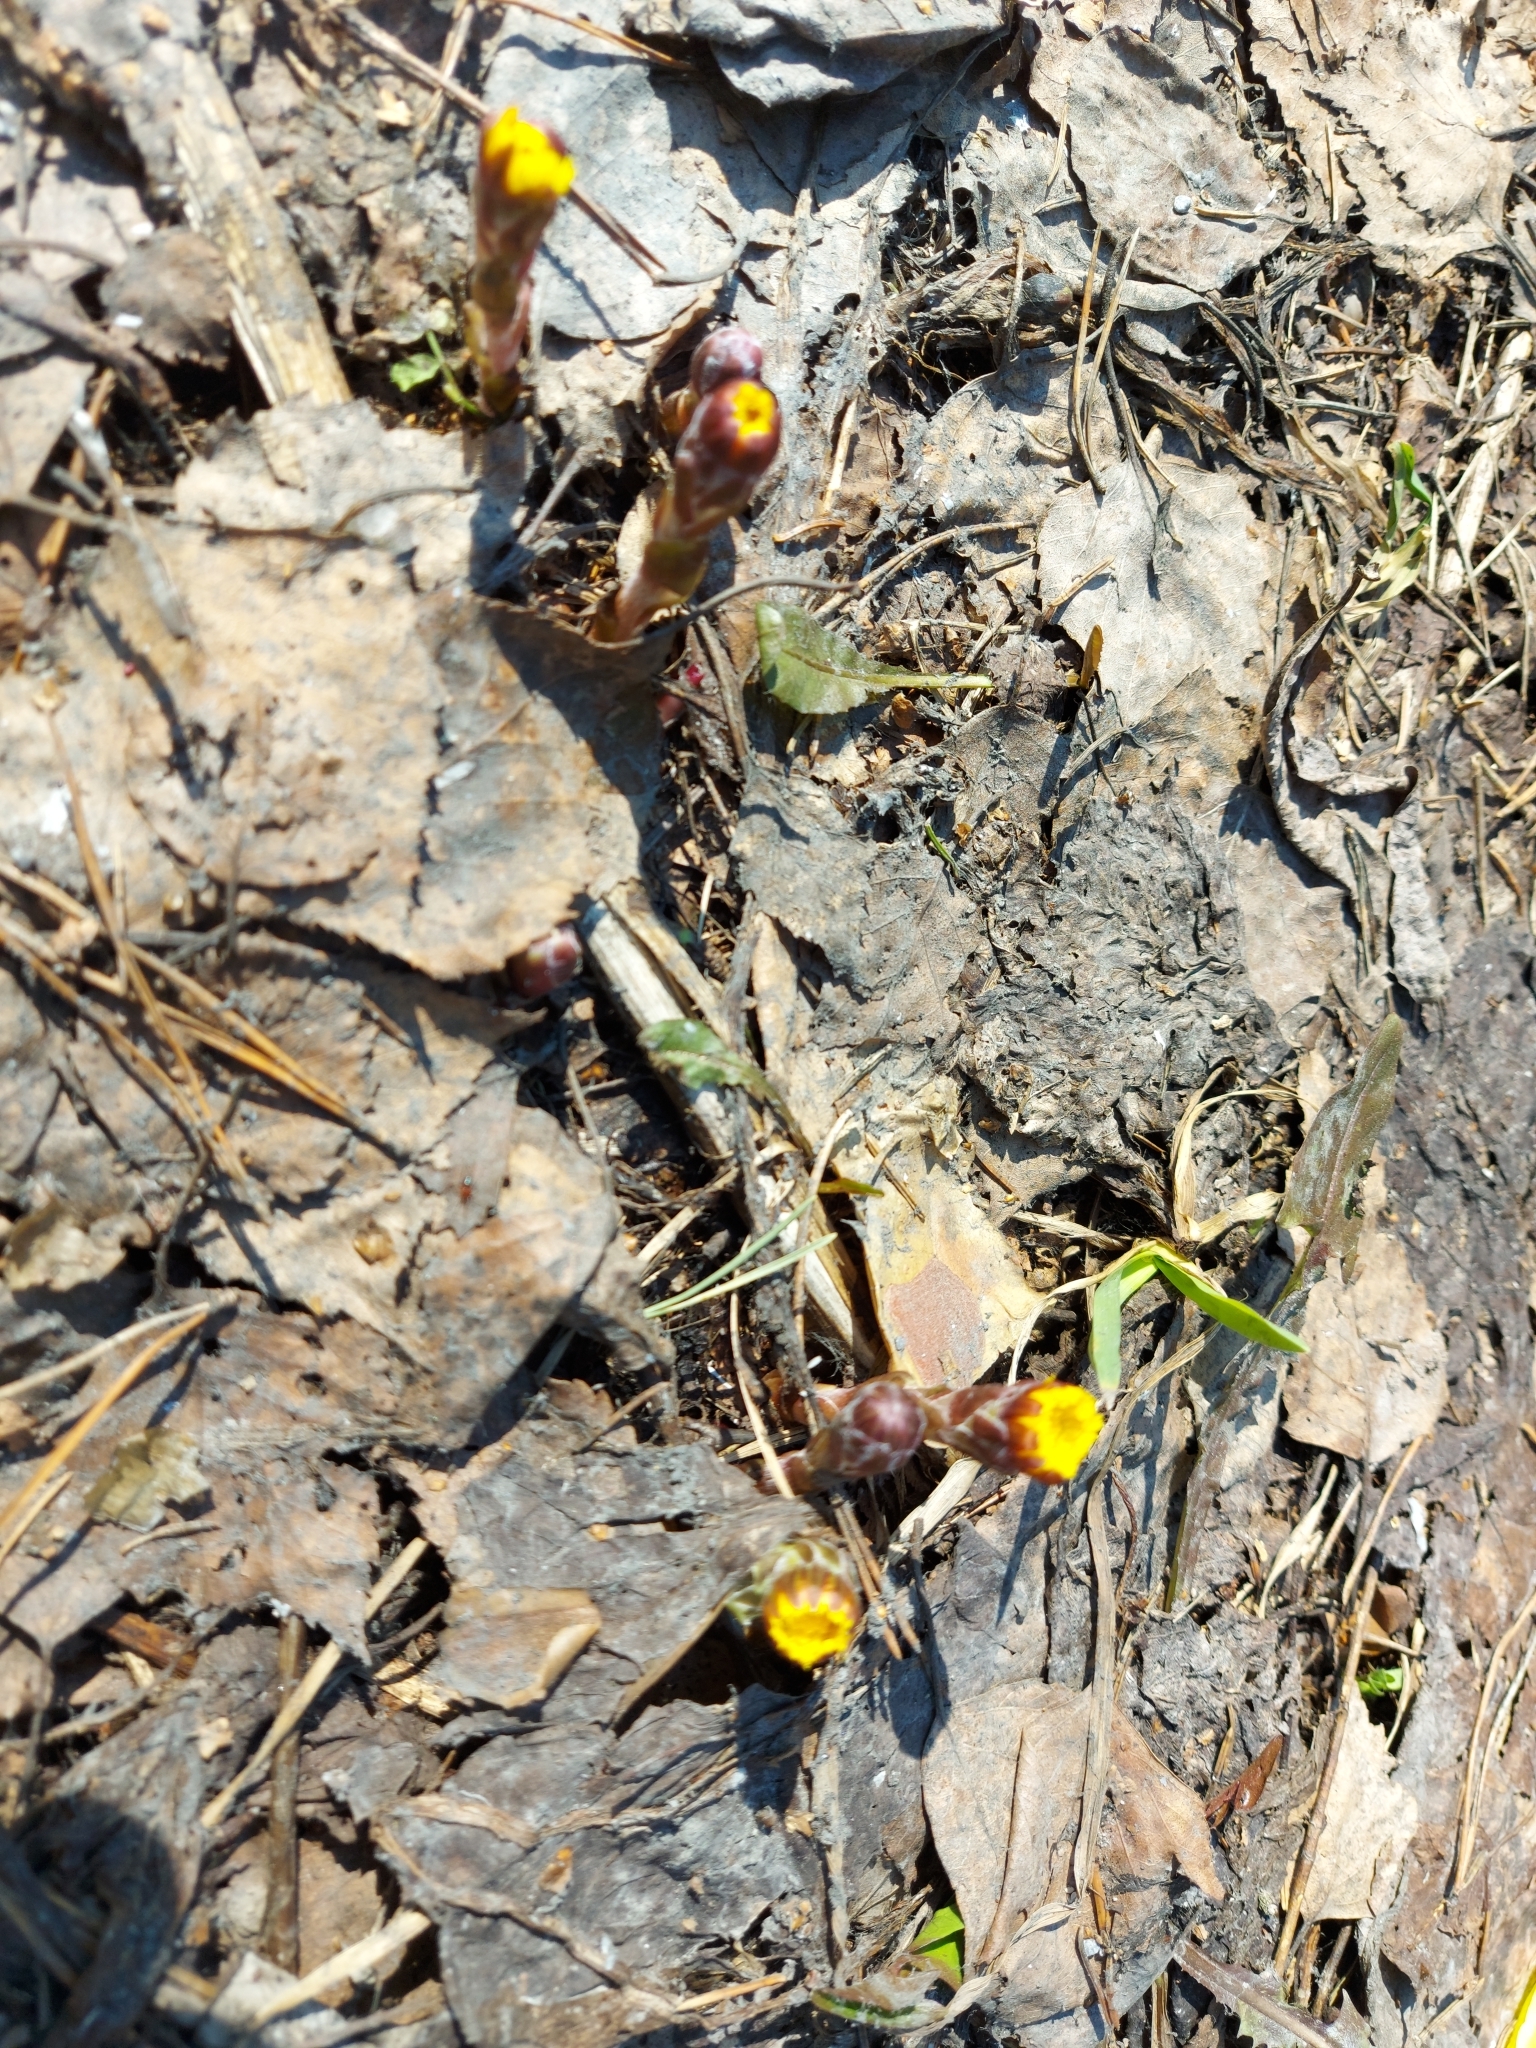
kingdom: Plantae
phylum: Tracheophyta
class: Magnoliopsida
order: Asterales
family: Asteraceae
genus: Tussilago
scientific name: Tussilago farfara
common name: Coltsfoot
